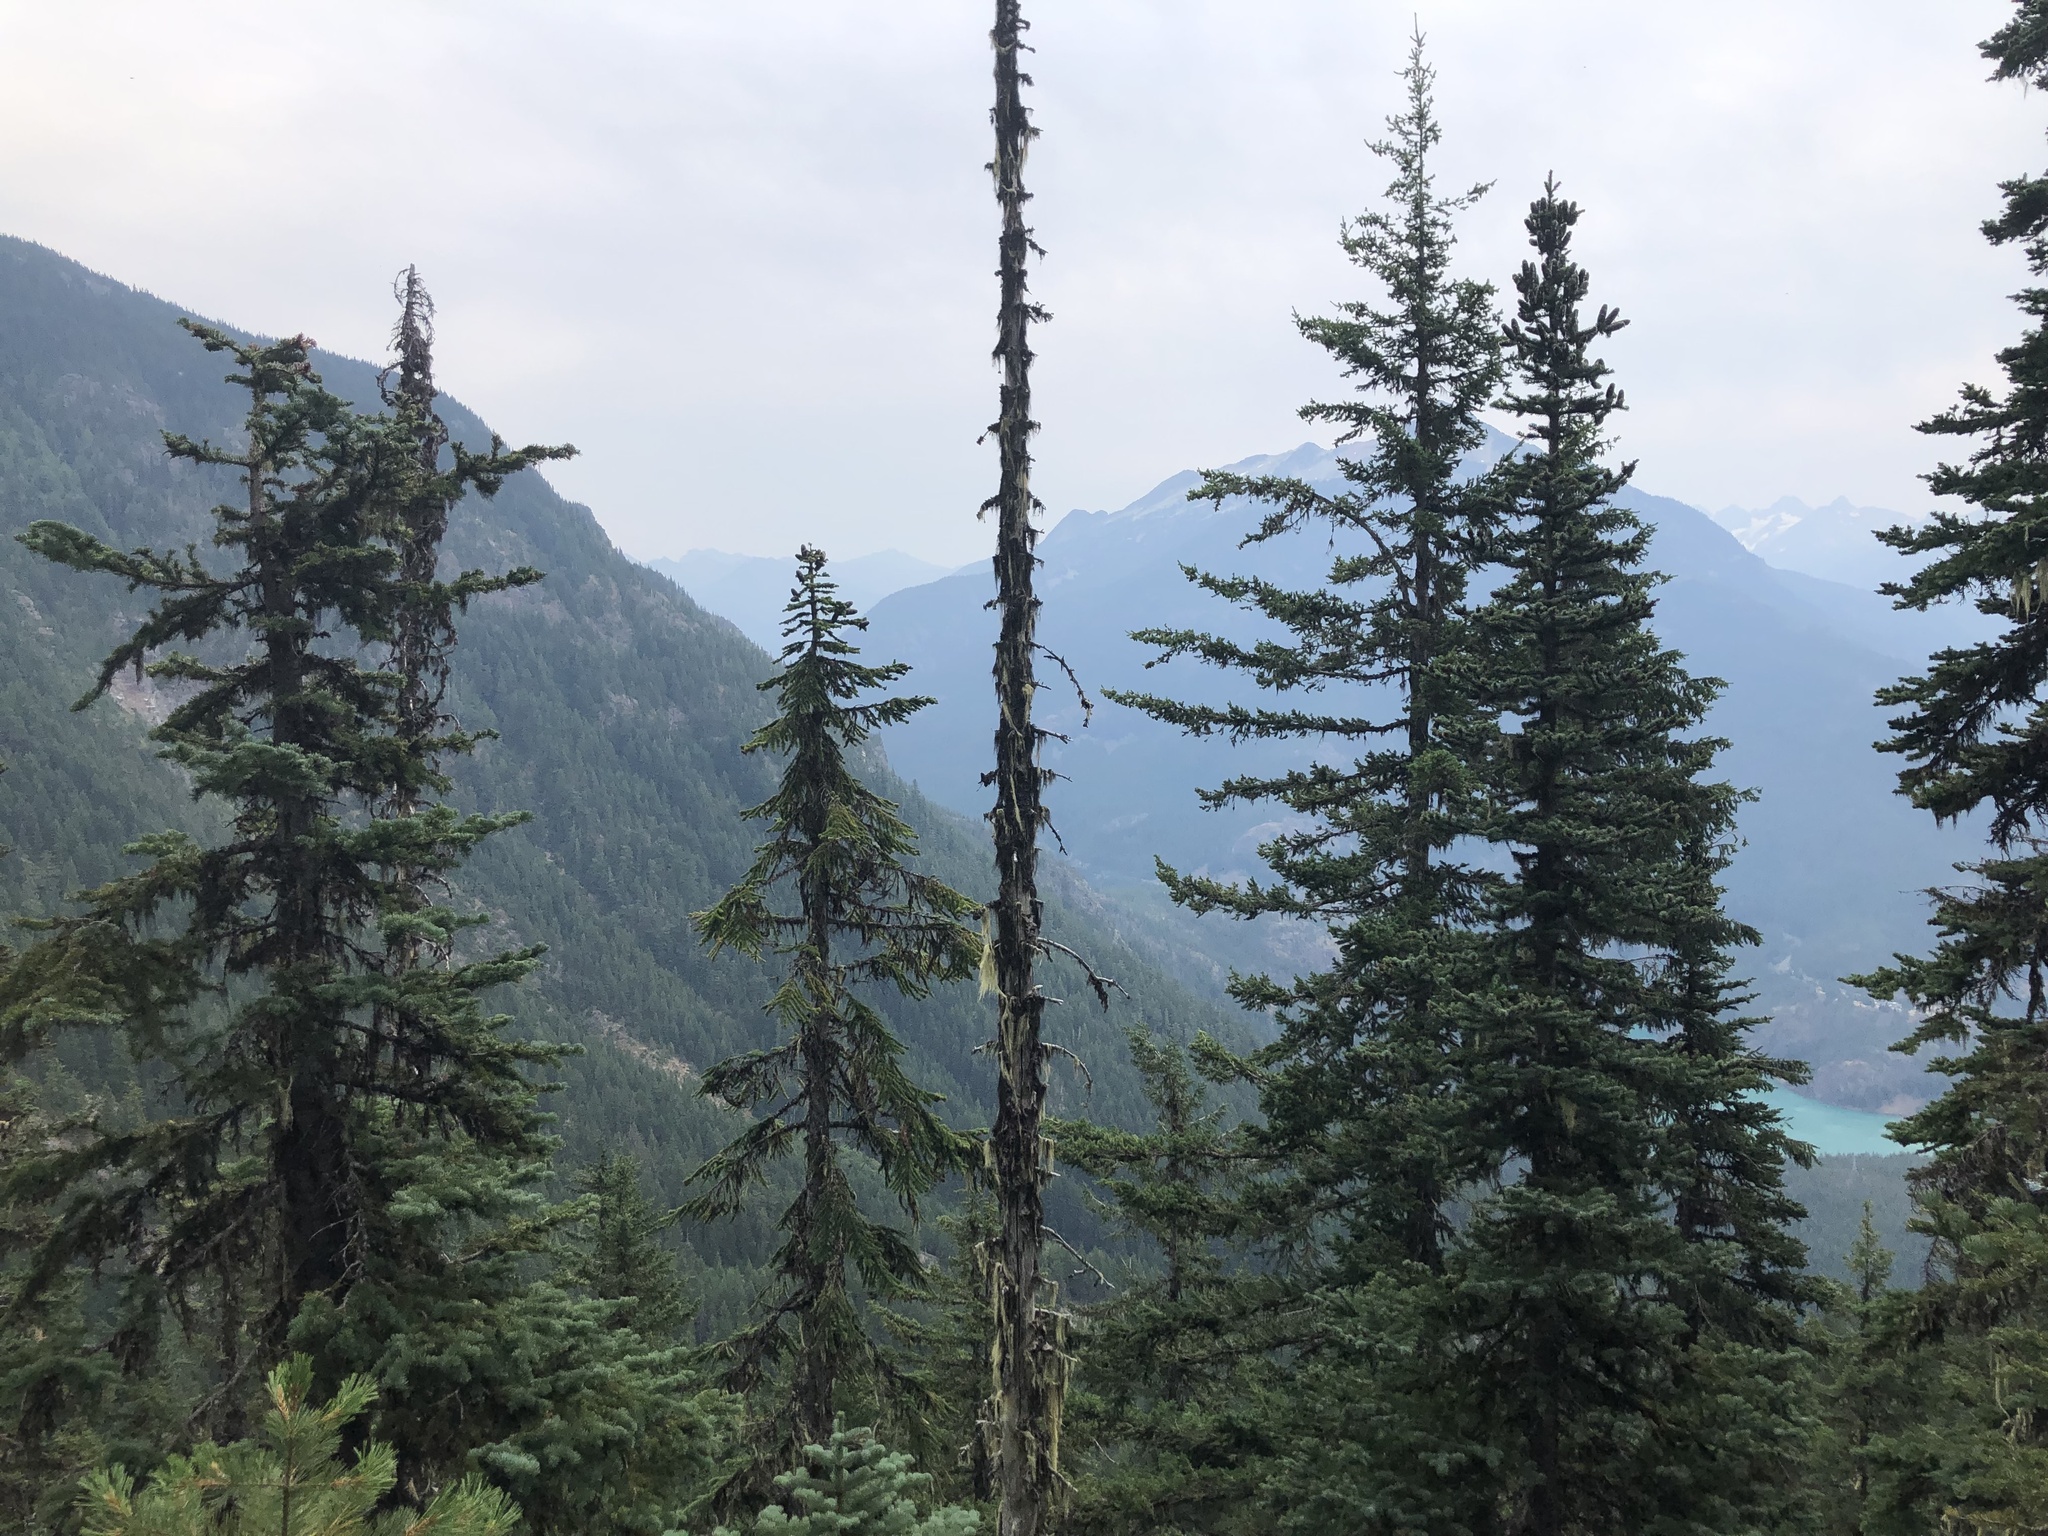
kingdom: Plantae
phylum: Tracheophyta
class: Pinopsida
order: Pinales
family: Pinaceae
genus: Abies
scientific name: Abies amabilis
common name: Pacific silver fir
